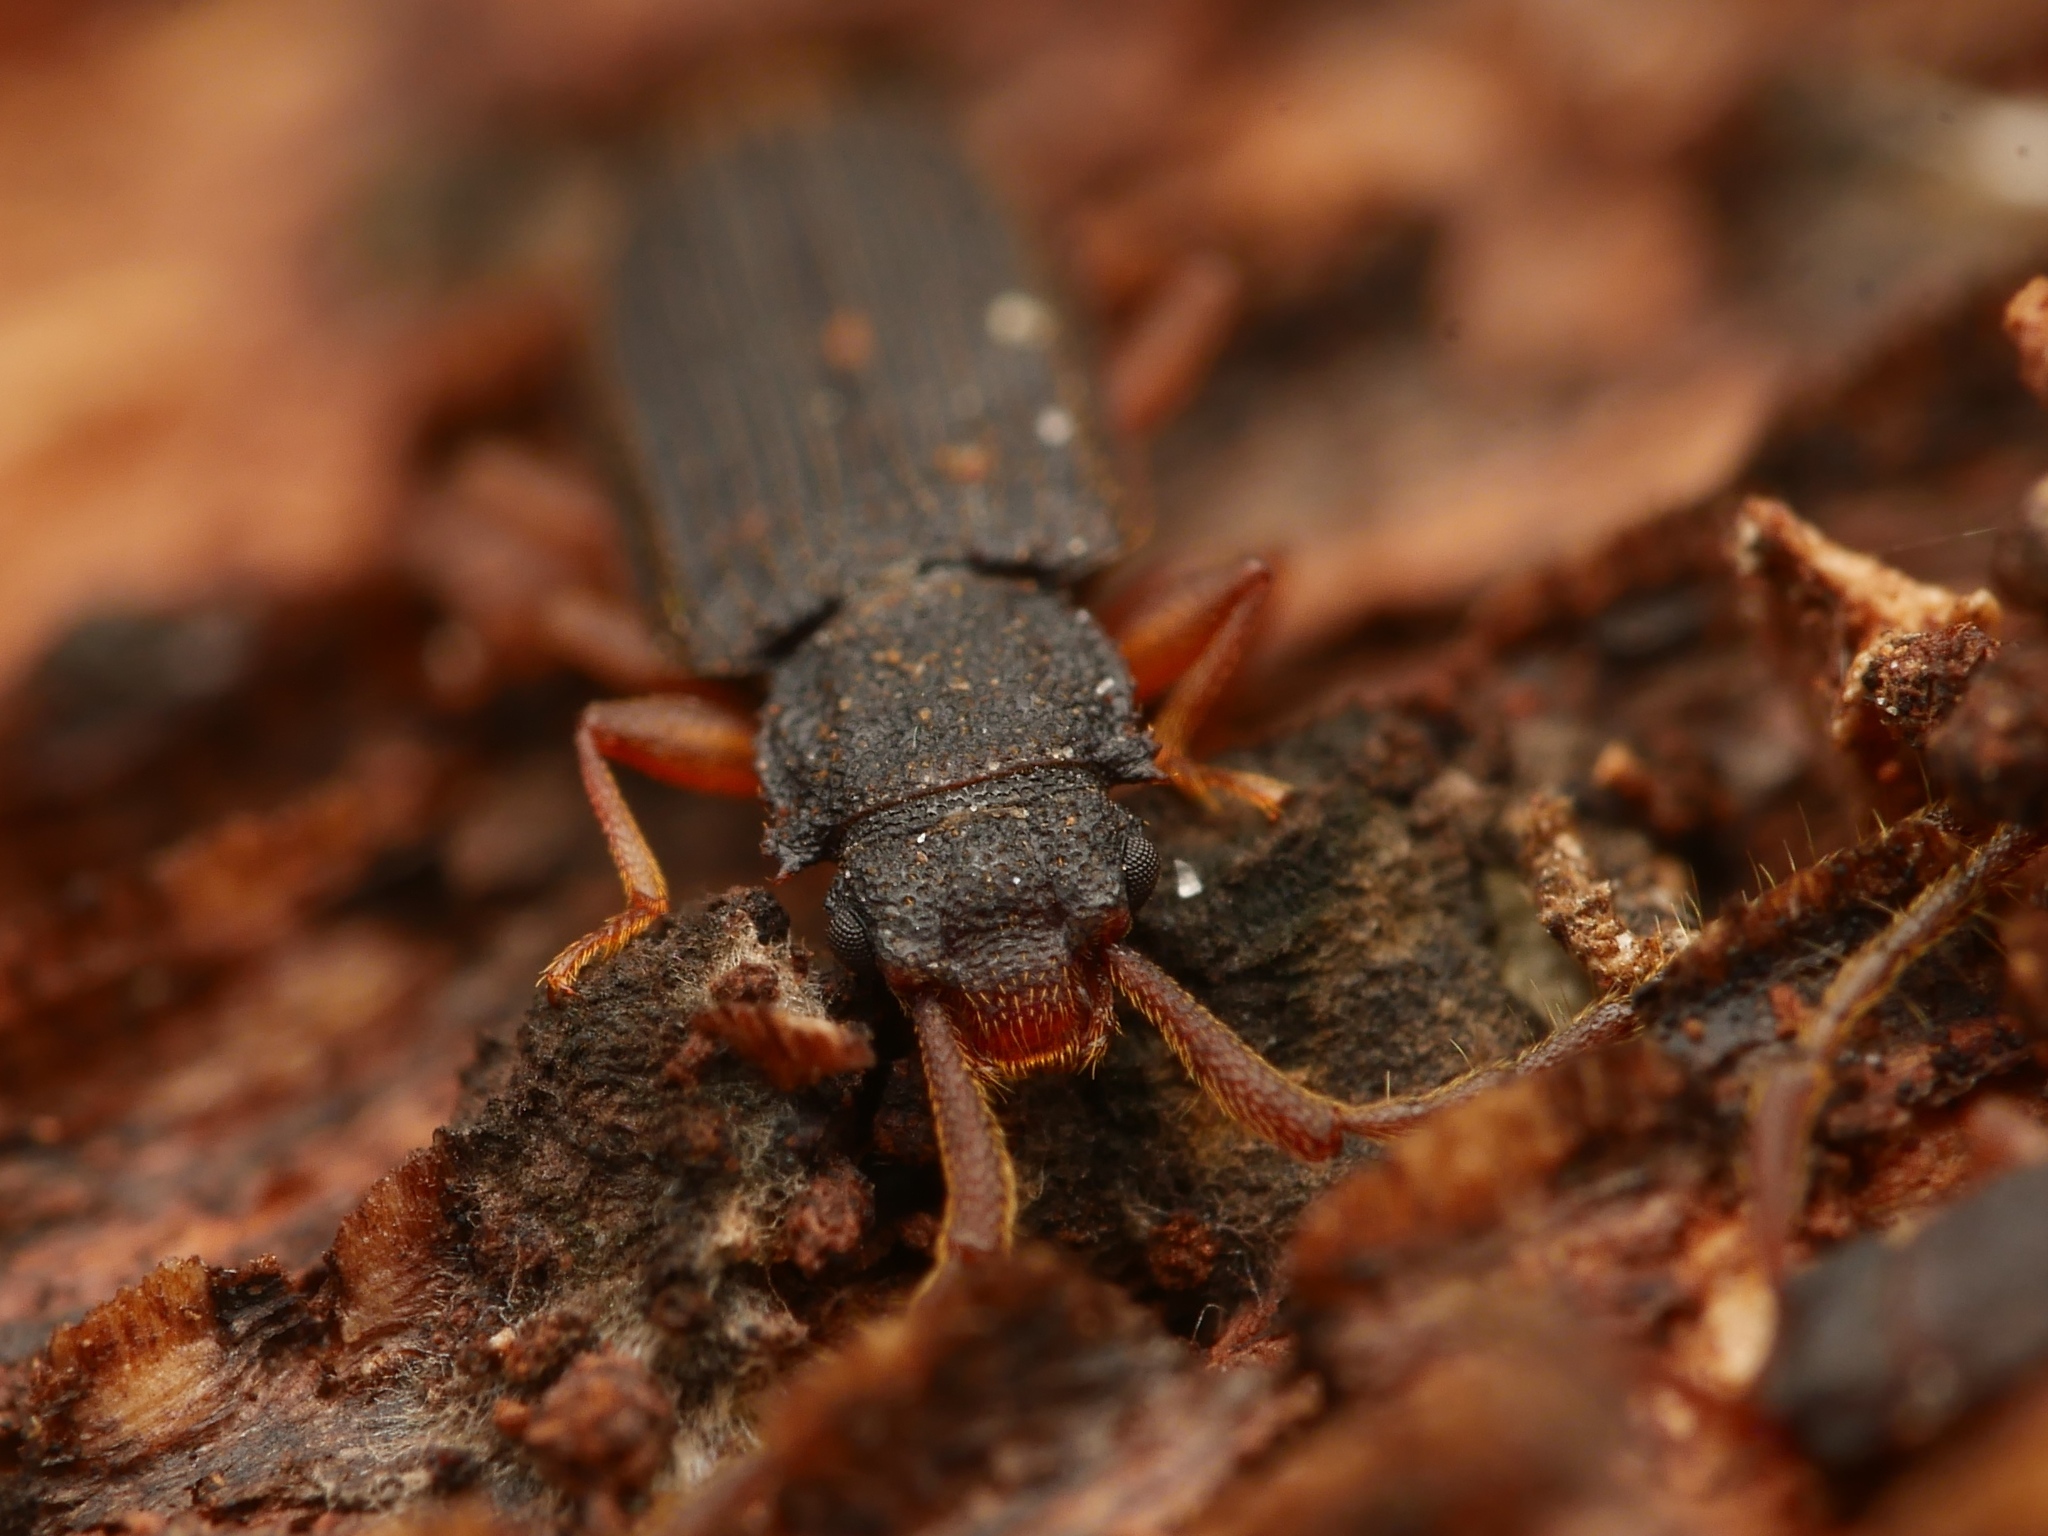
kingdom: Animalia
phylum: Arthropoda
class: Insecta
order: Coleoptera
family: Silvanidae
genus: Uleiota
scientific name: Uleiota planatus
